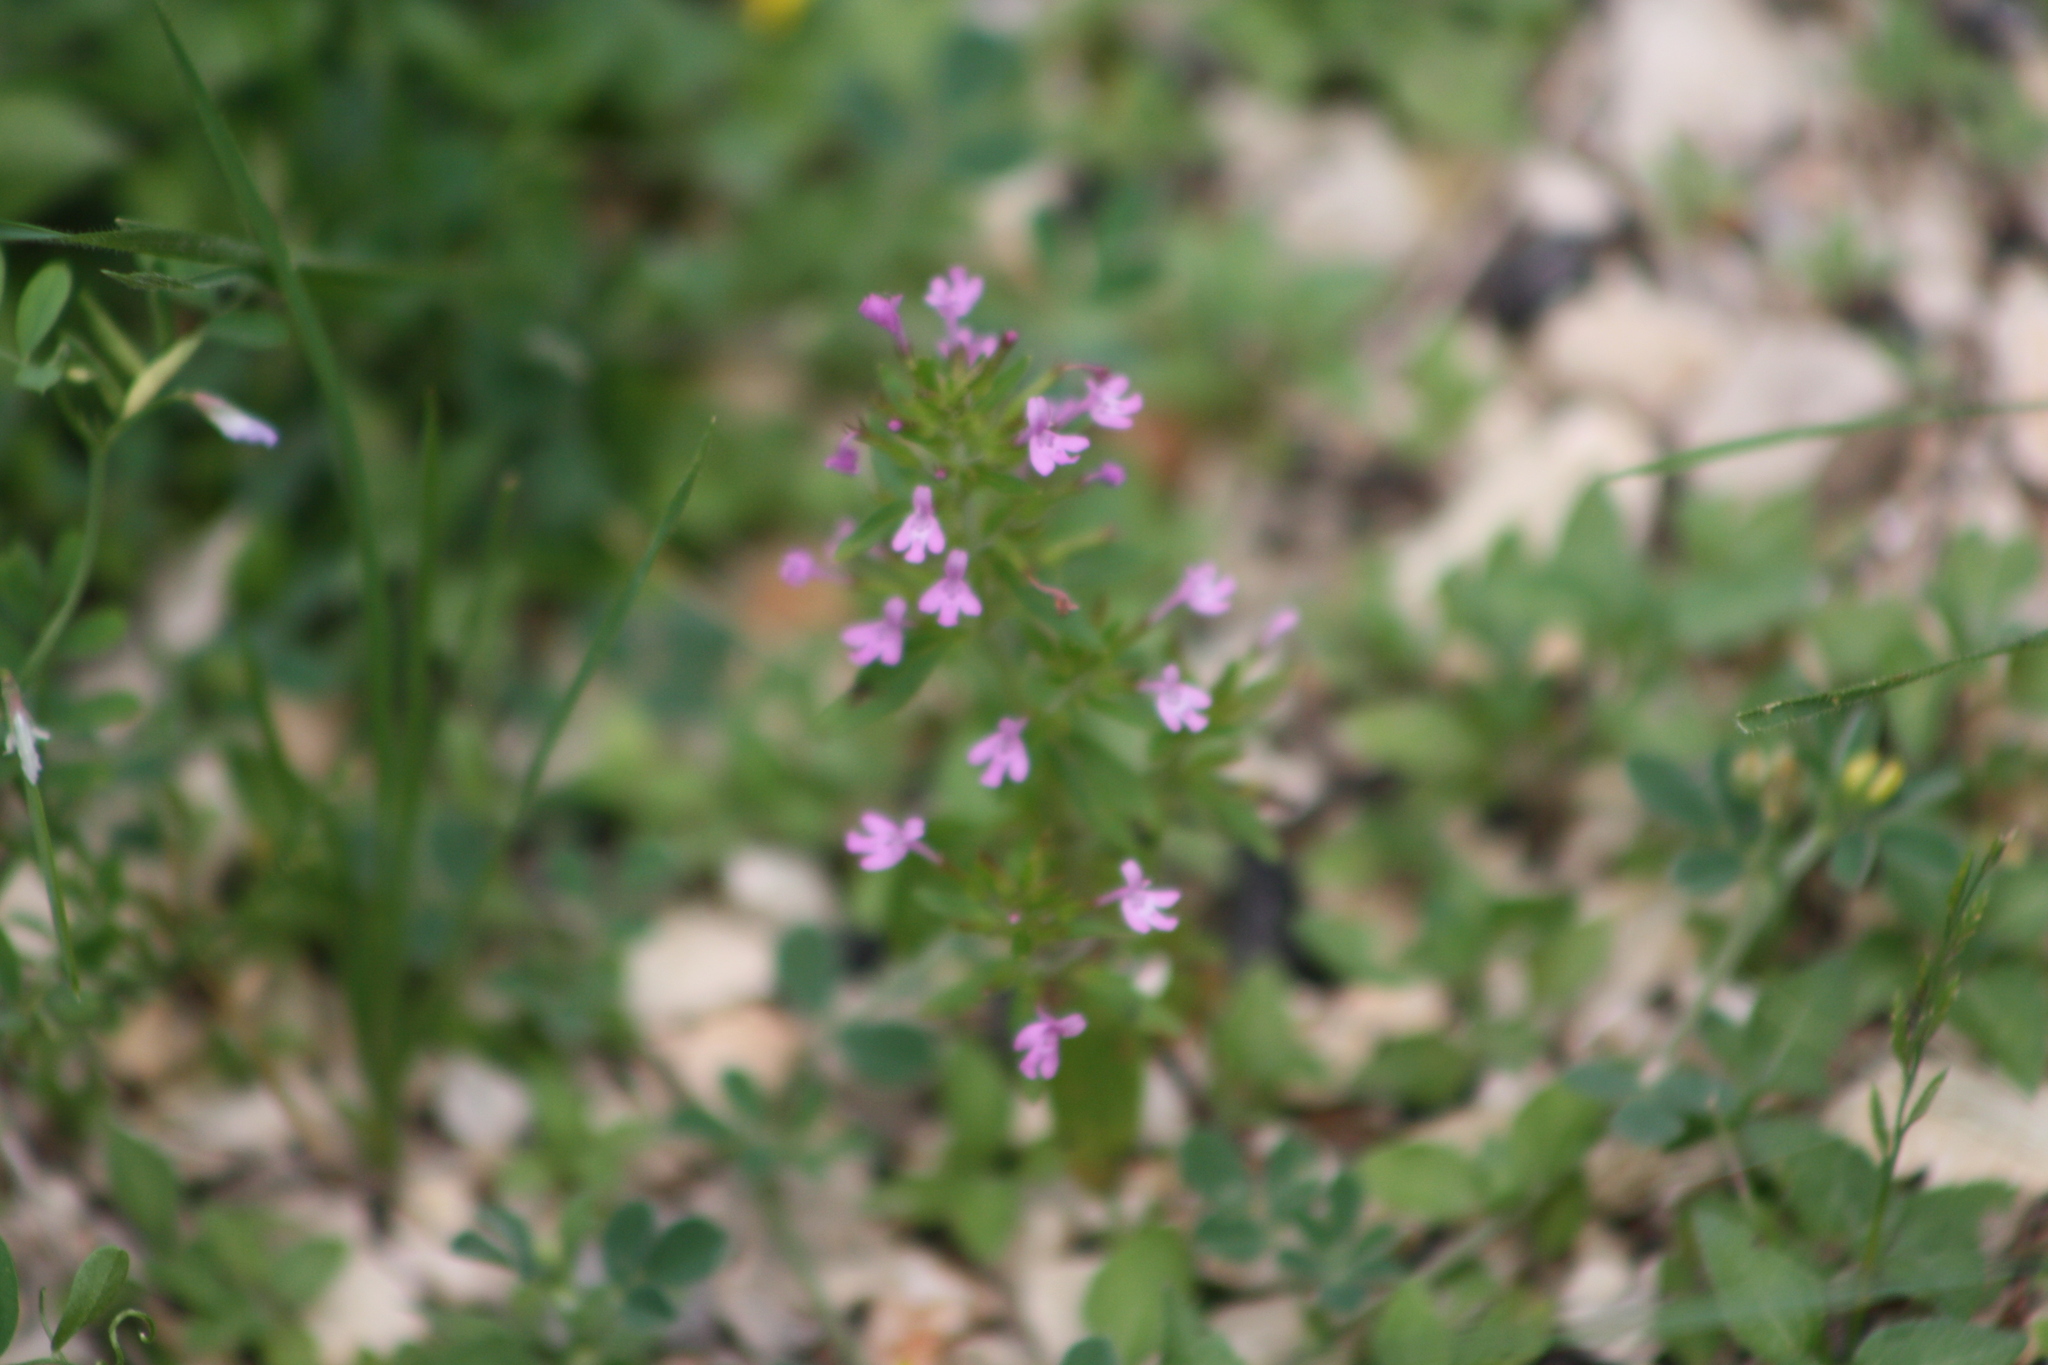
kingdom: Plantae
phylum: Tracheophyta
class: Magnoliopsida
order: Lamiales
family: Lamiaceae
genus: Hedeoma
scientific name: Hedeoma acinoides
